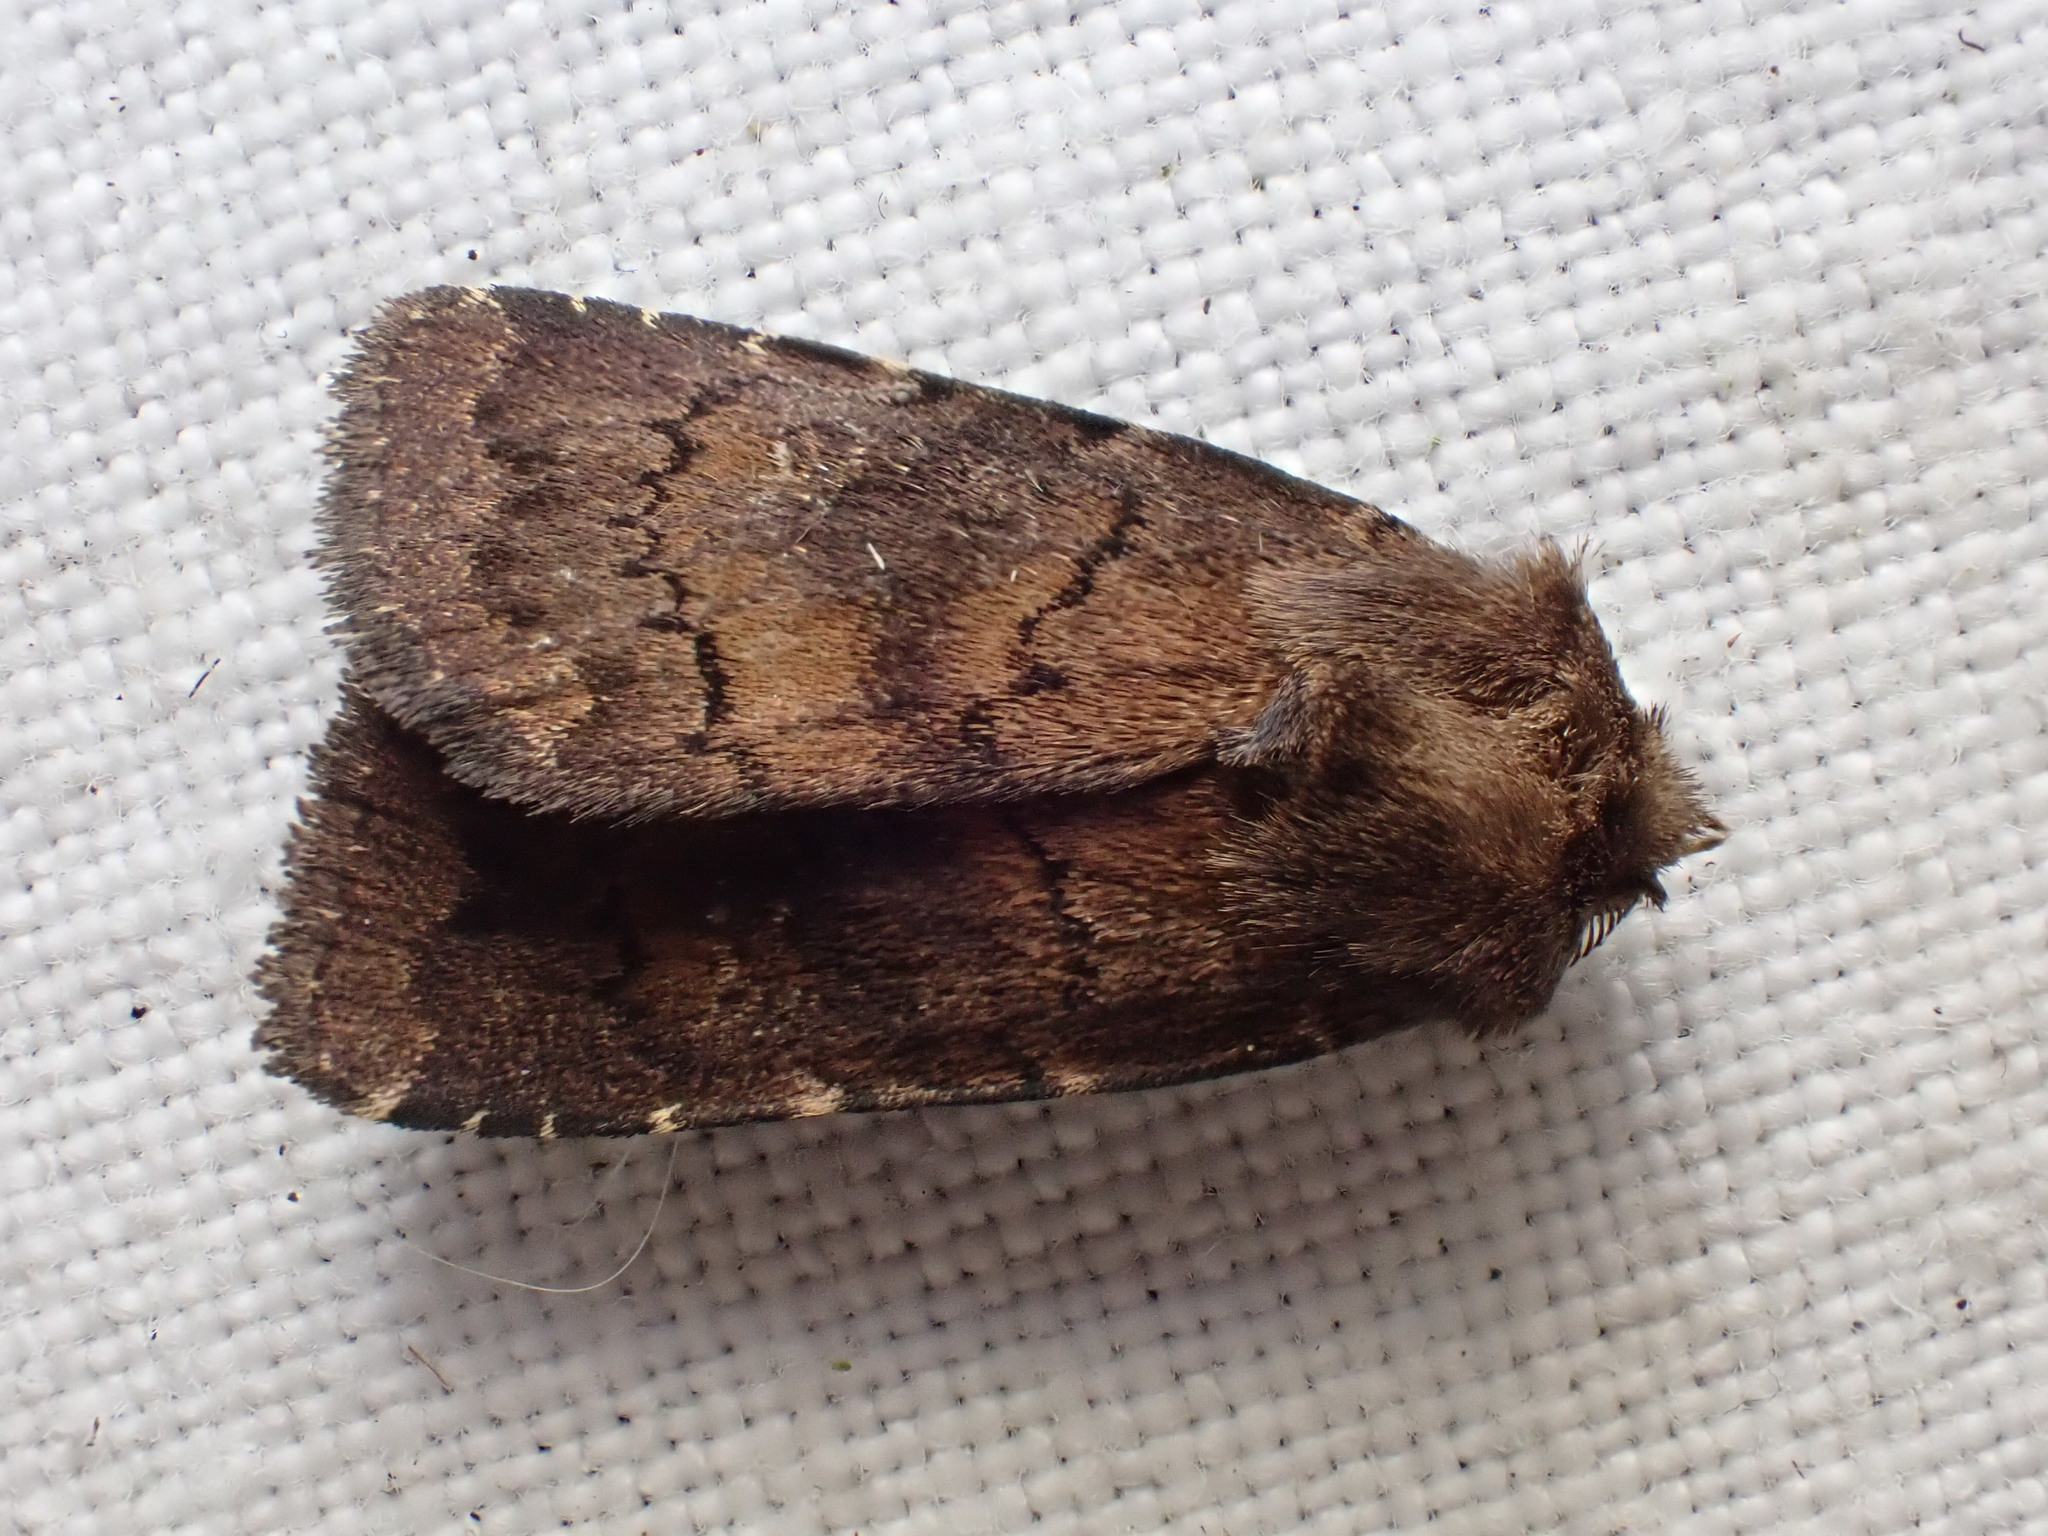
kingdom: Animalia
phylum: Arthropoda
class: Insecta
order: Lepidoptera
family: Noctuidae
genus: Charanyca
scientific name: Charanyca ferruginea
